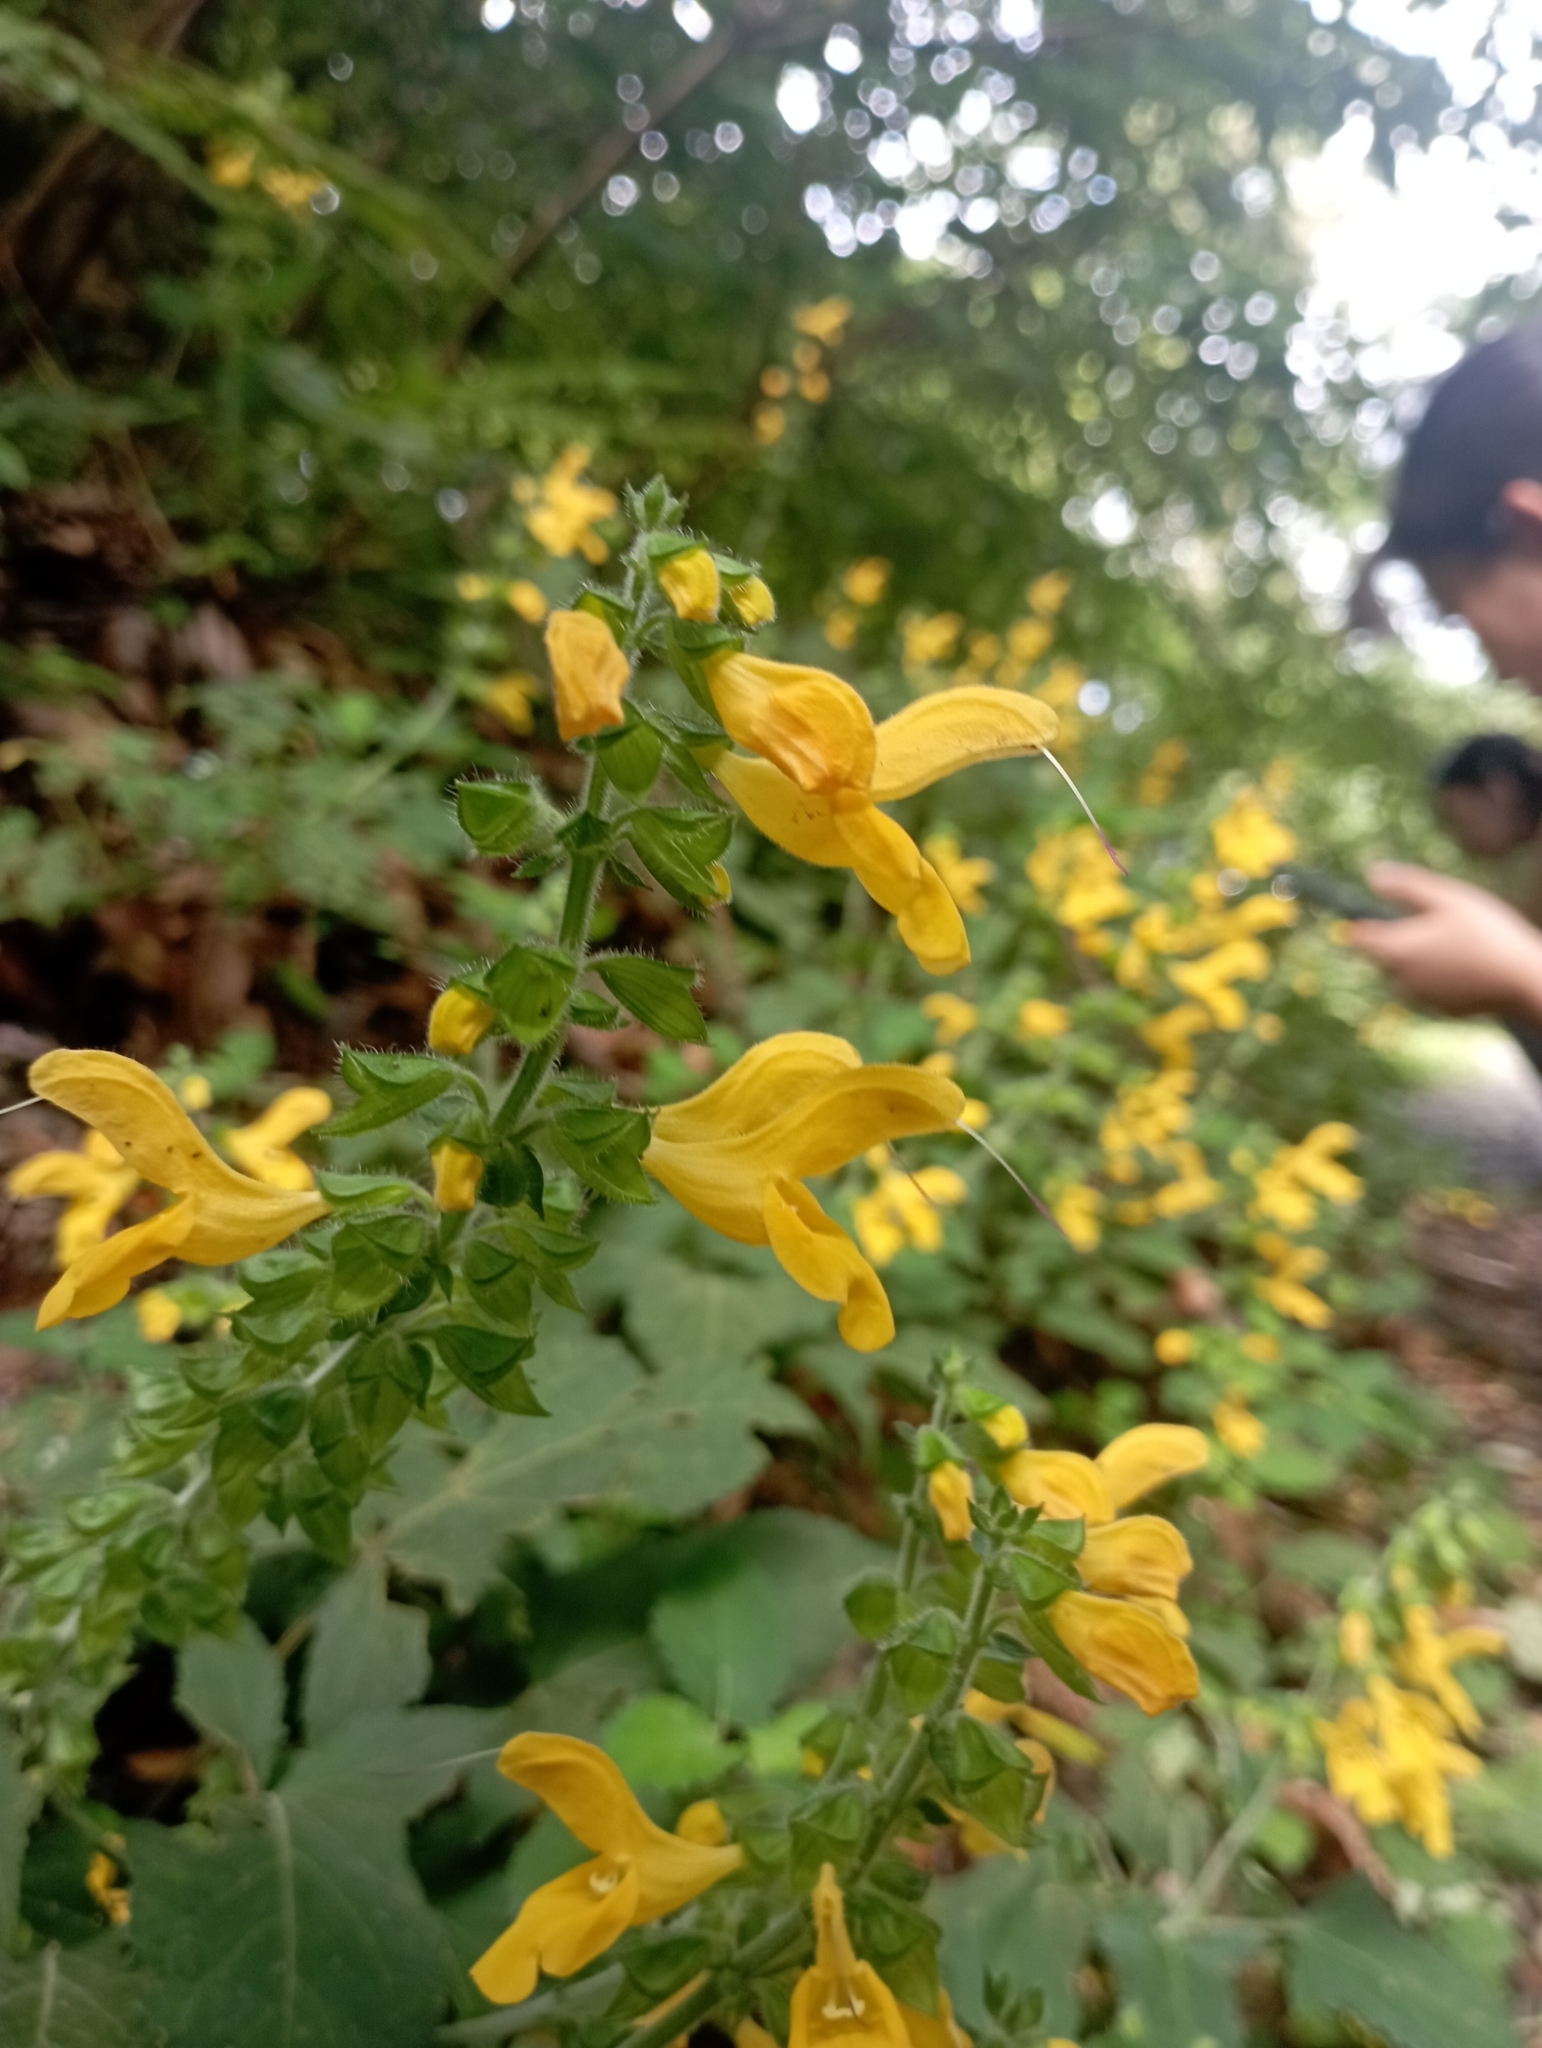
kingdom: Plantae
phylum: Tracheophyta
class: Magnoliopsida
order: Lamiales
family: Lamiaceae
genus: Salvia
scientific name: Salvia japonica
